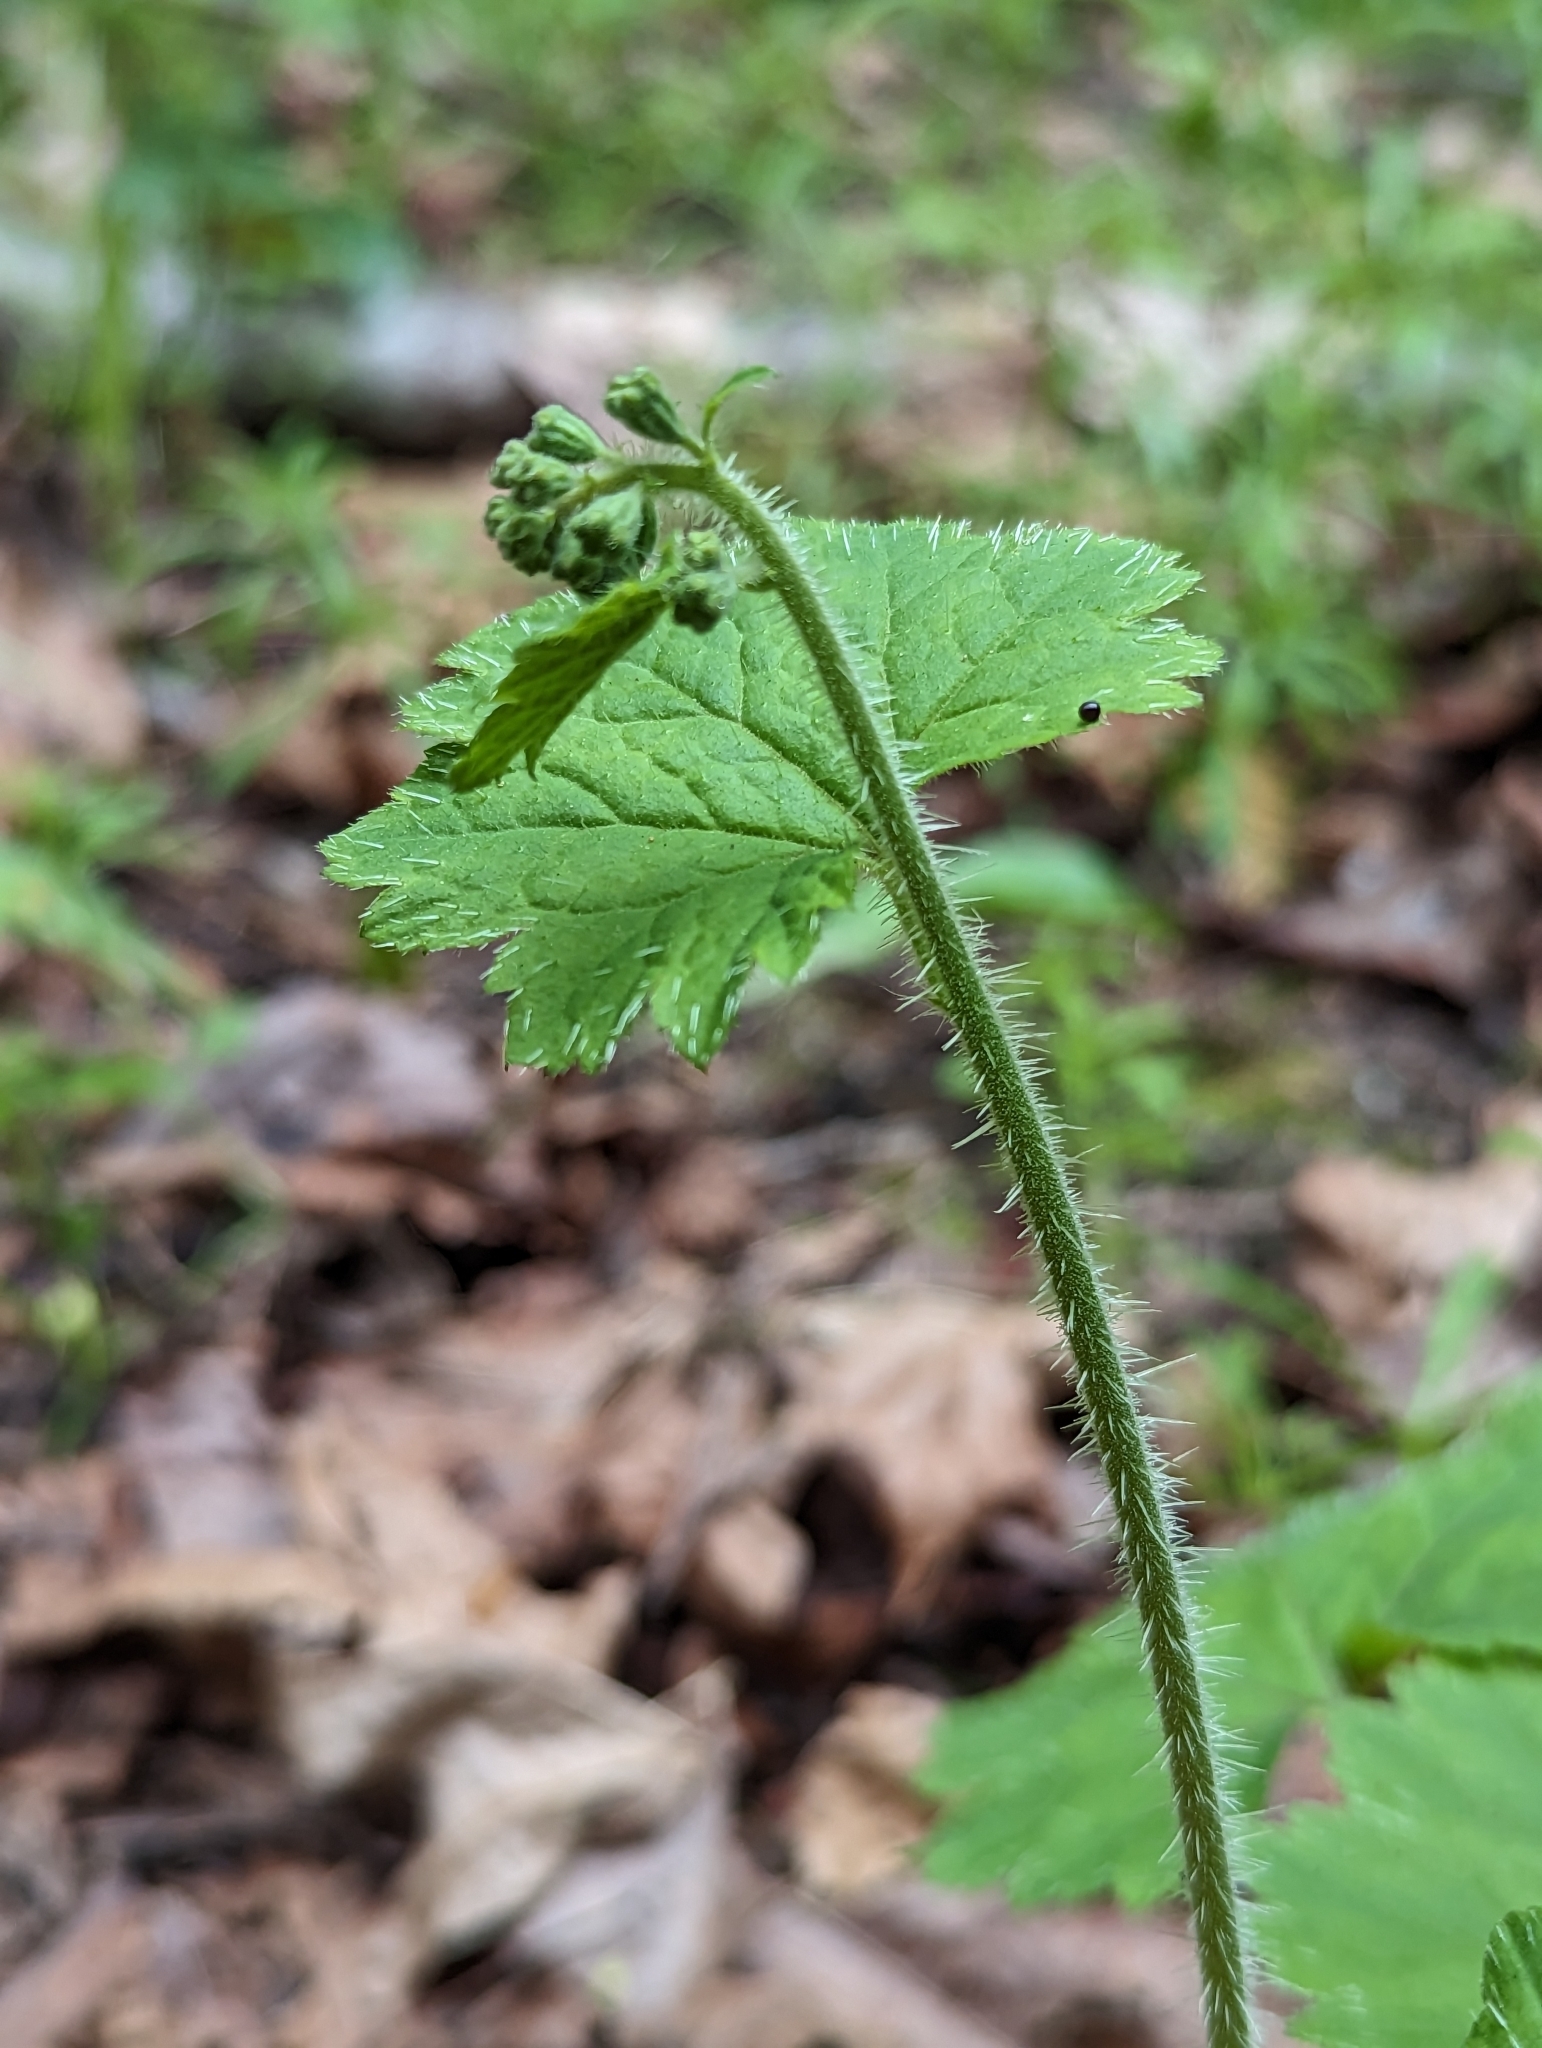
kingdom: Plantae
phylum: Tracheophyta
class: Magnoliopsida
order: Saxifragales
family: Saxifragaceae
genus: Tellima
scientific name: Tellima grandiflora
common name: Fringecups
